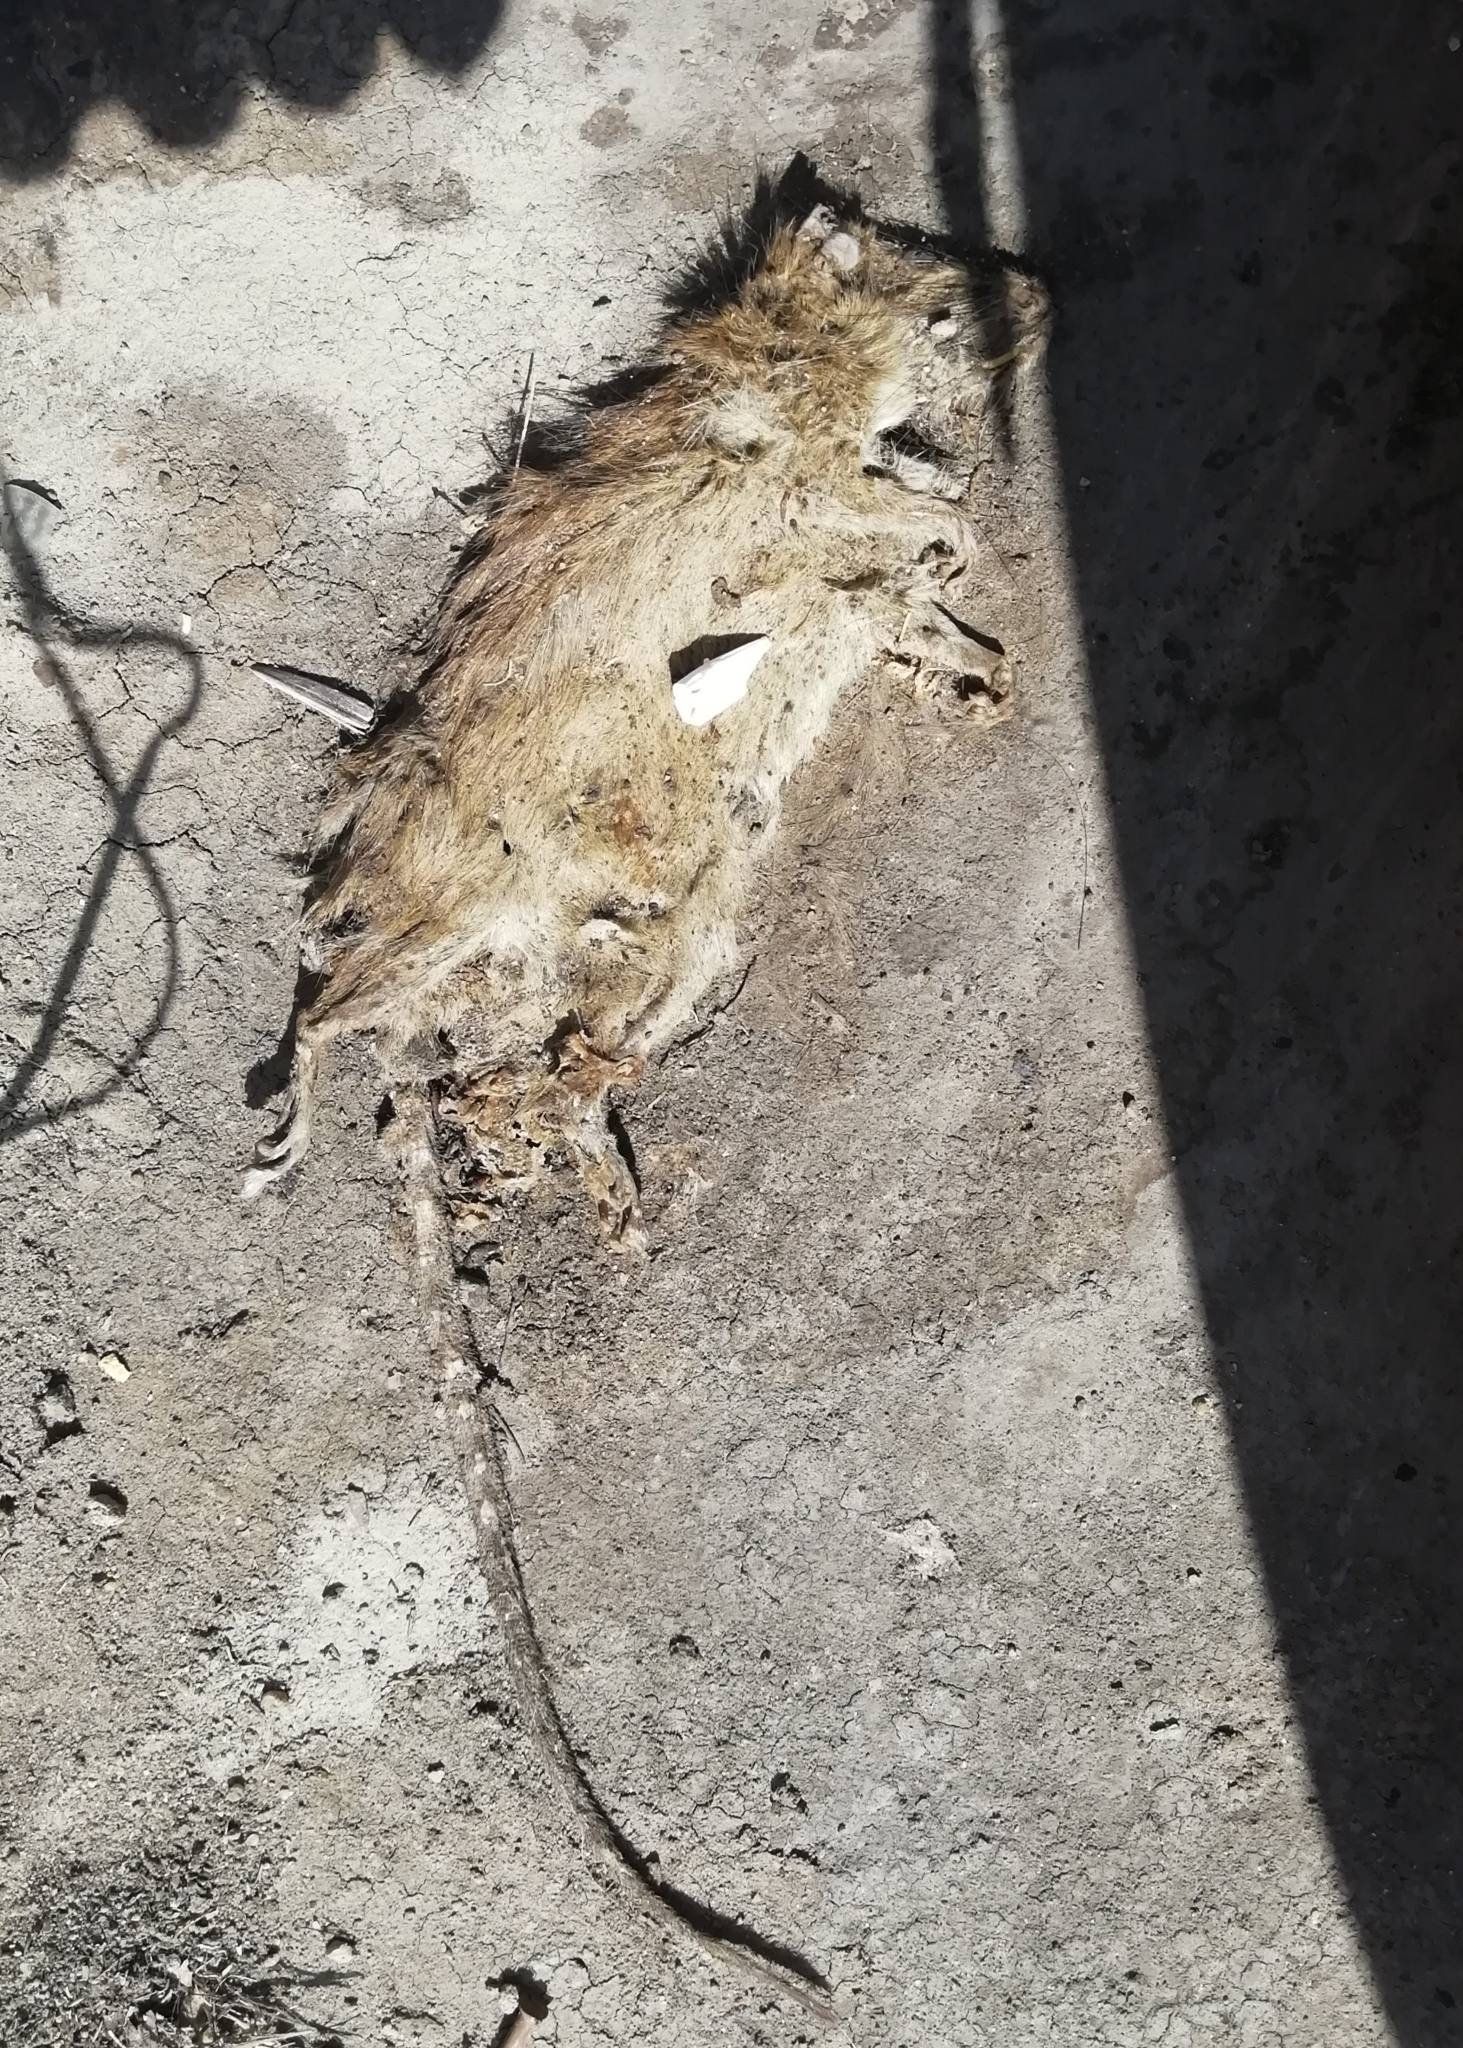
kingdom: Animalia
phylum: Chordata
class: Mammalia
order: Rodentia
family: Muridae
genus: Rattus
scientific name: Rattus
